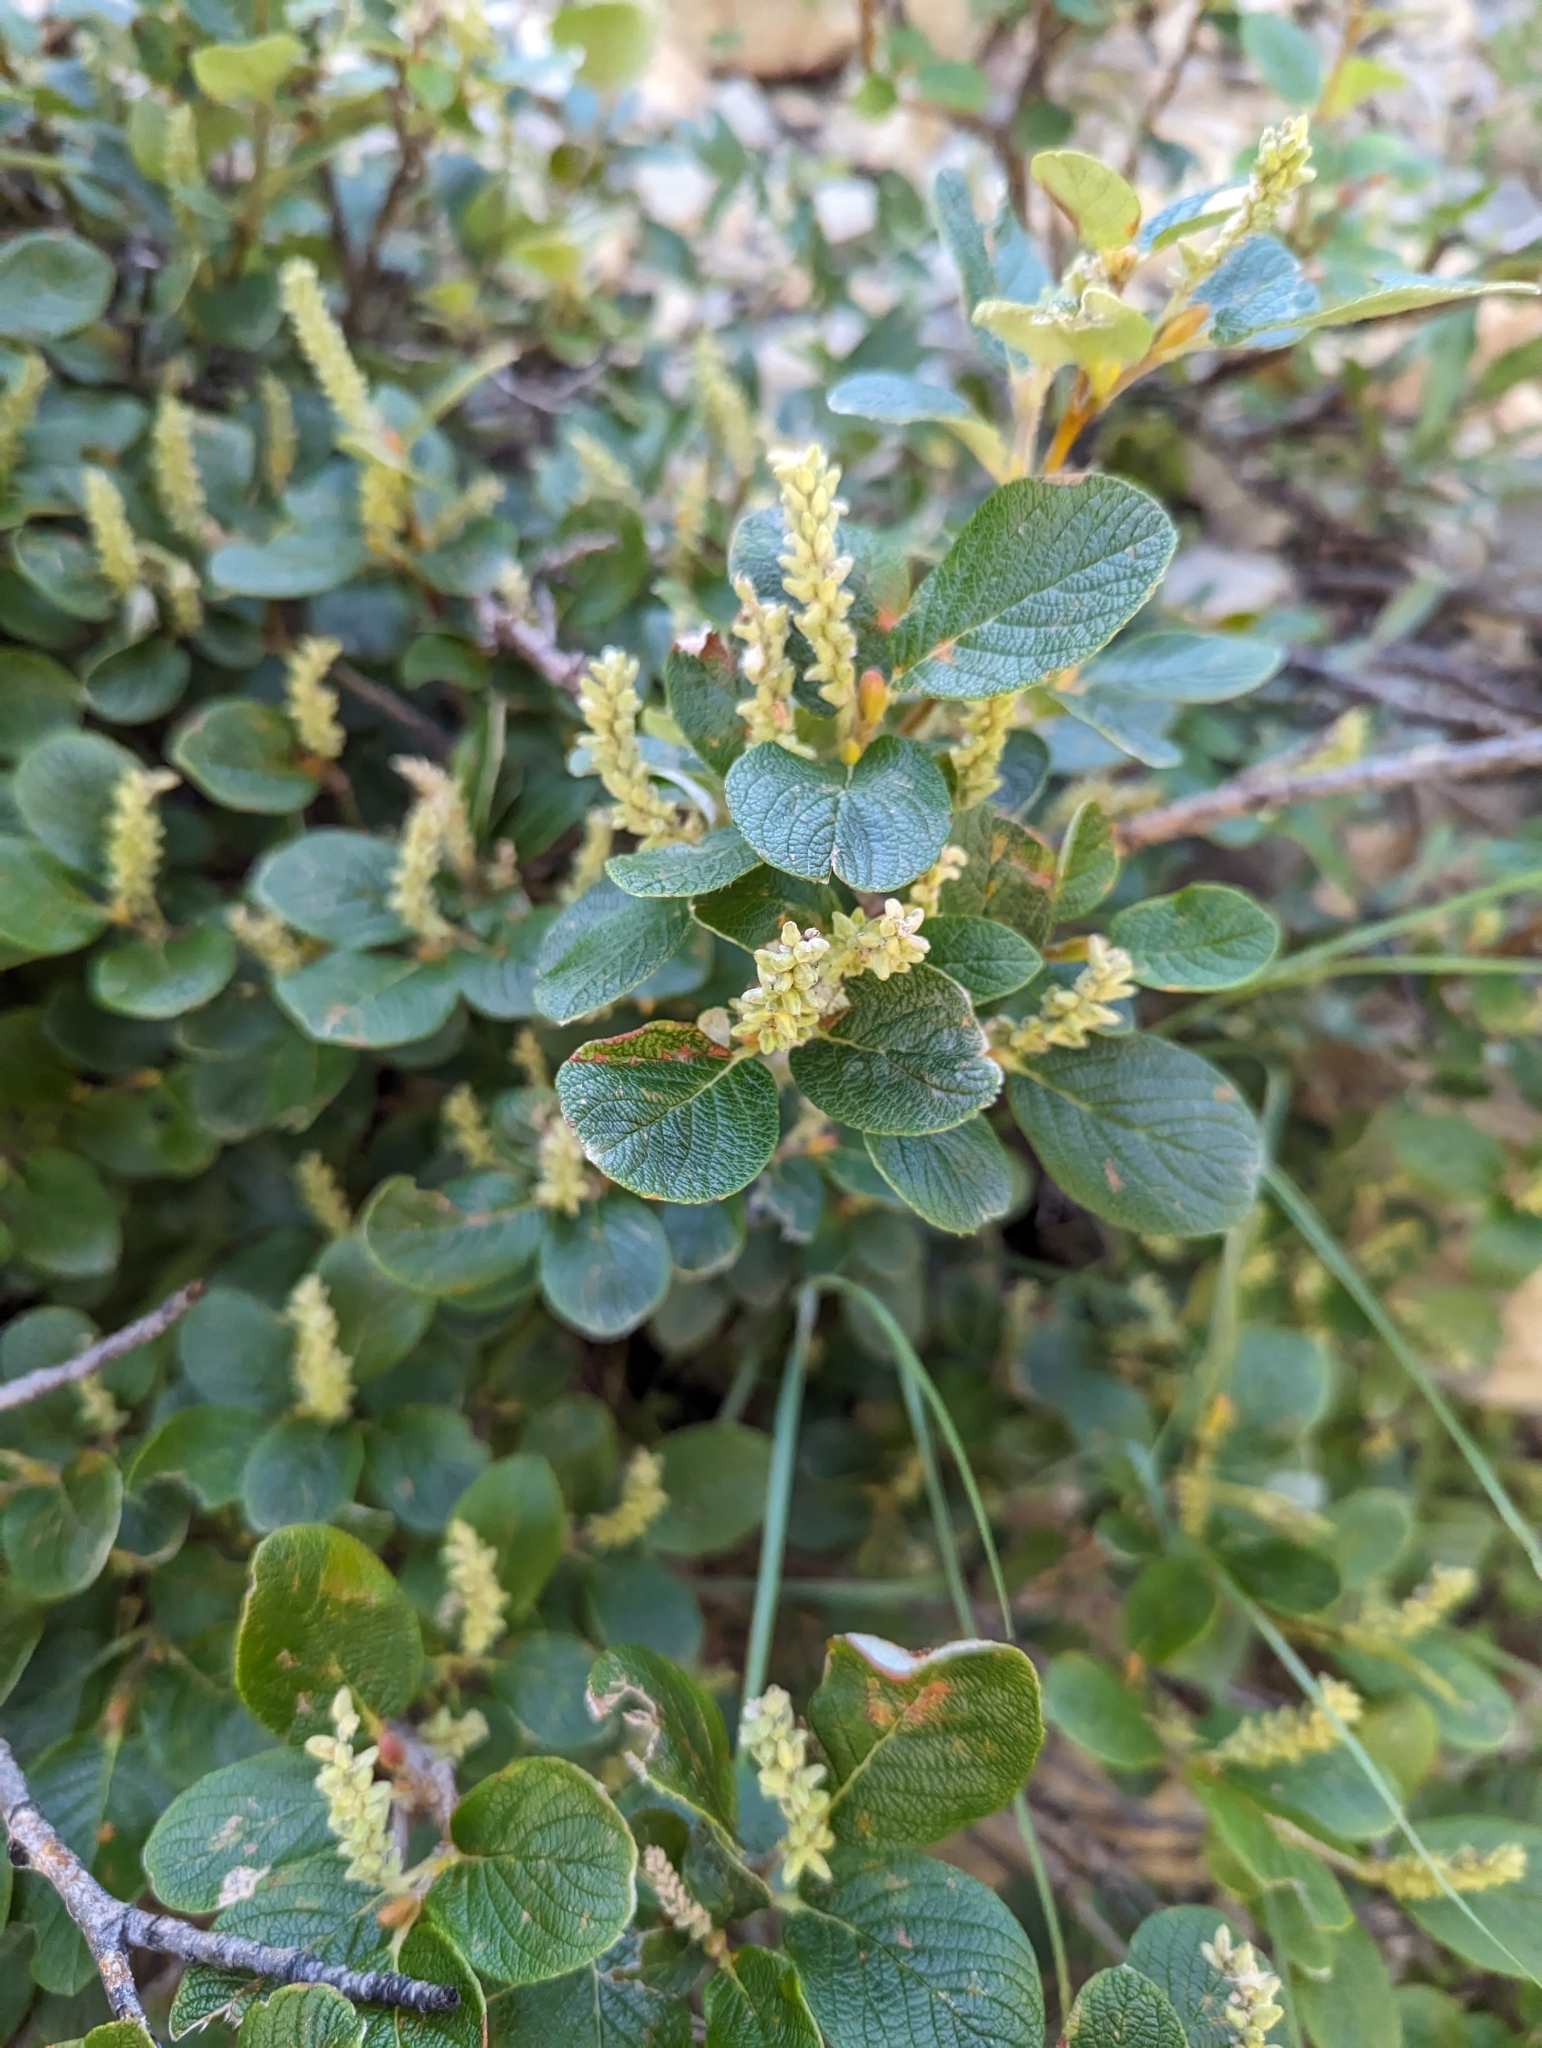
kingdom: Plantae
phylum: Tracheophyta
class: Magnoliopsida
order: Malpighiales
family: Salicaceae
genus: Salix
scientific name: Salix vestita
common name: Hairy willow
